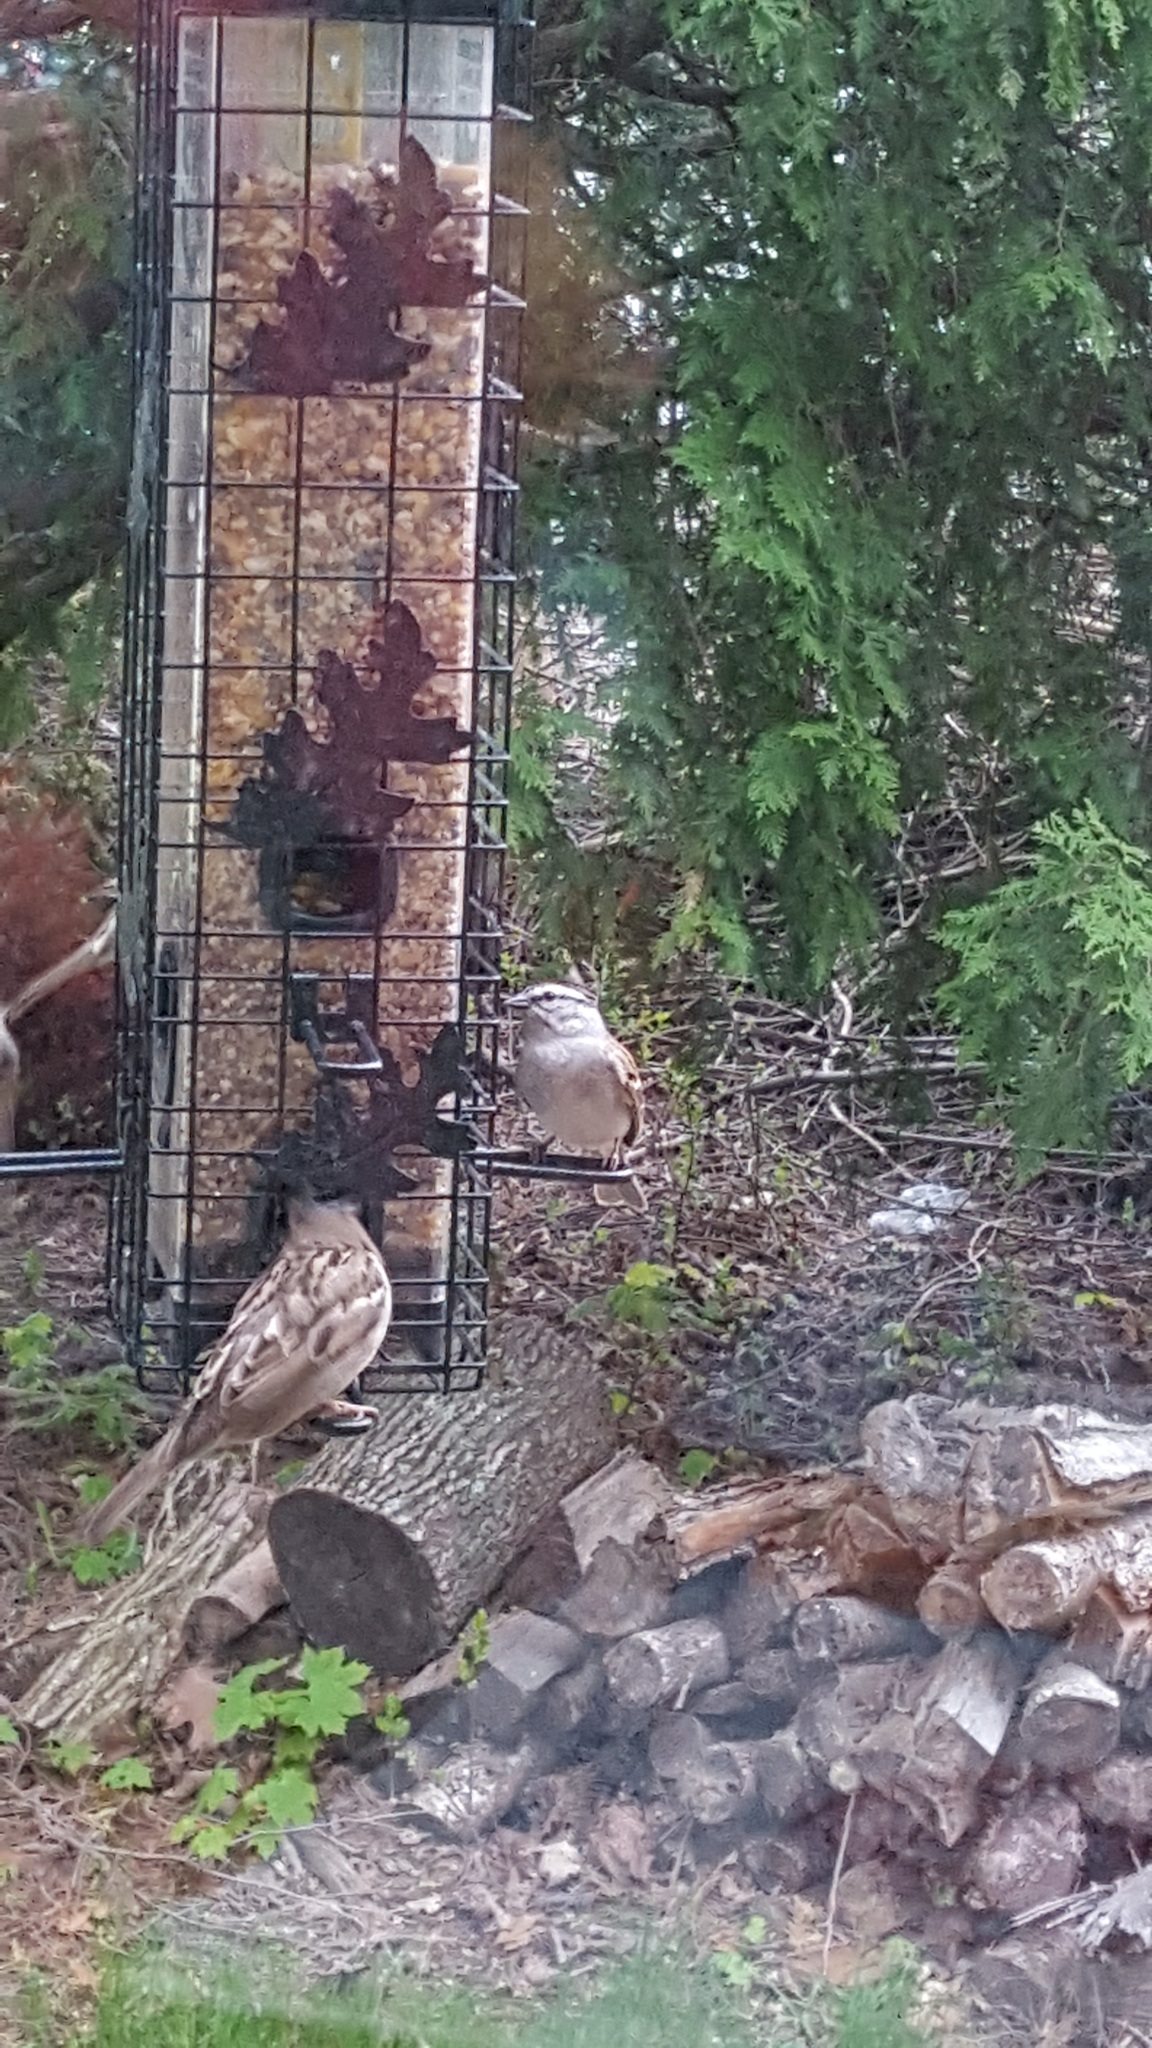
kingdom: Animalia
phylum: Chordata
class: Aves
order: Passeriformes
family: Passerellidae
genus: Spizella
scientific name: Spizella passerina
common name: Chipping sparrow
